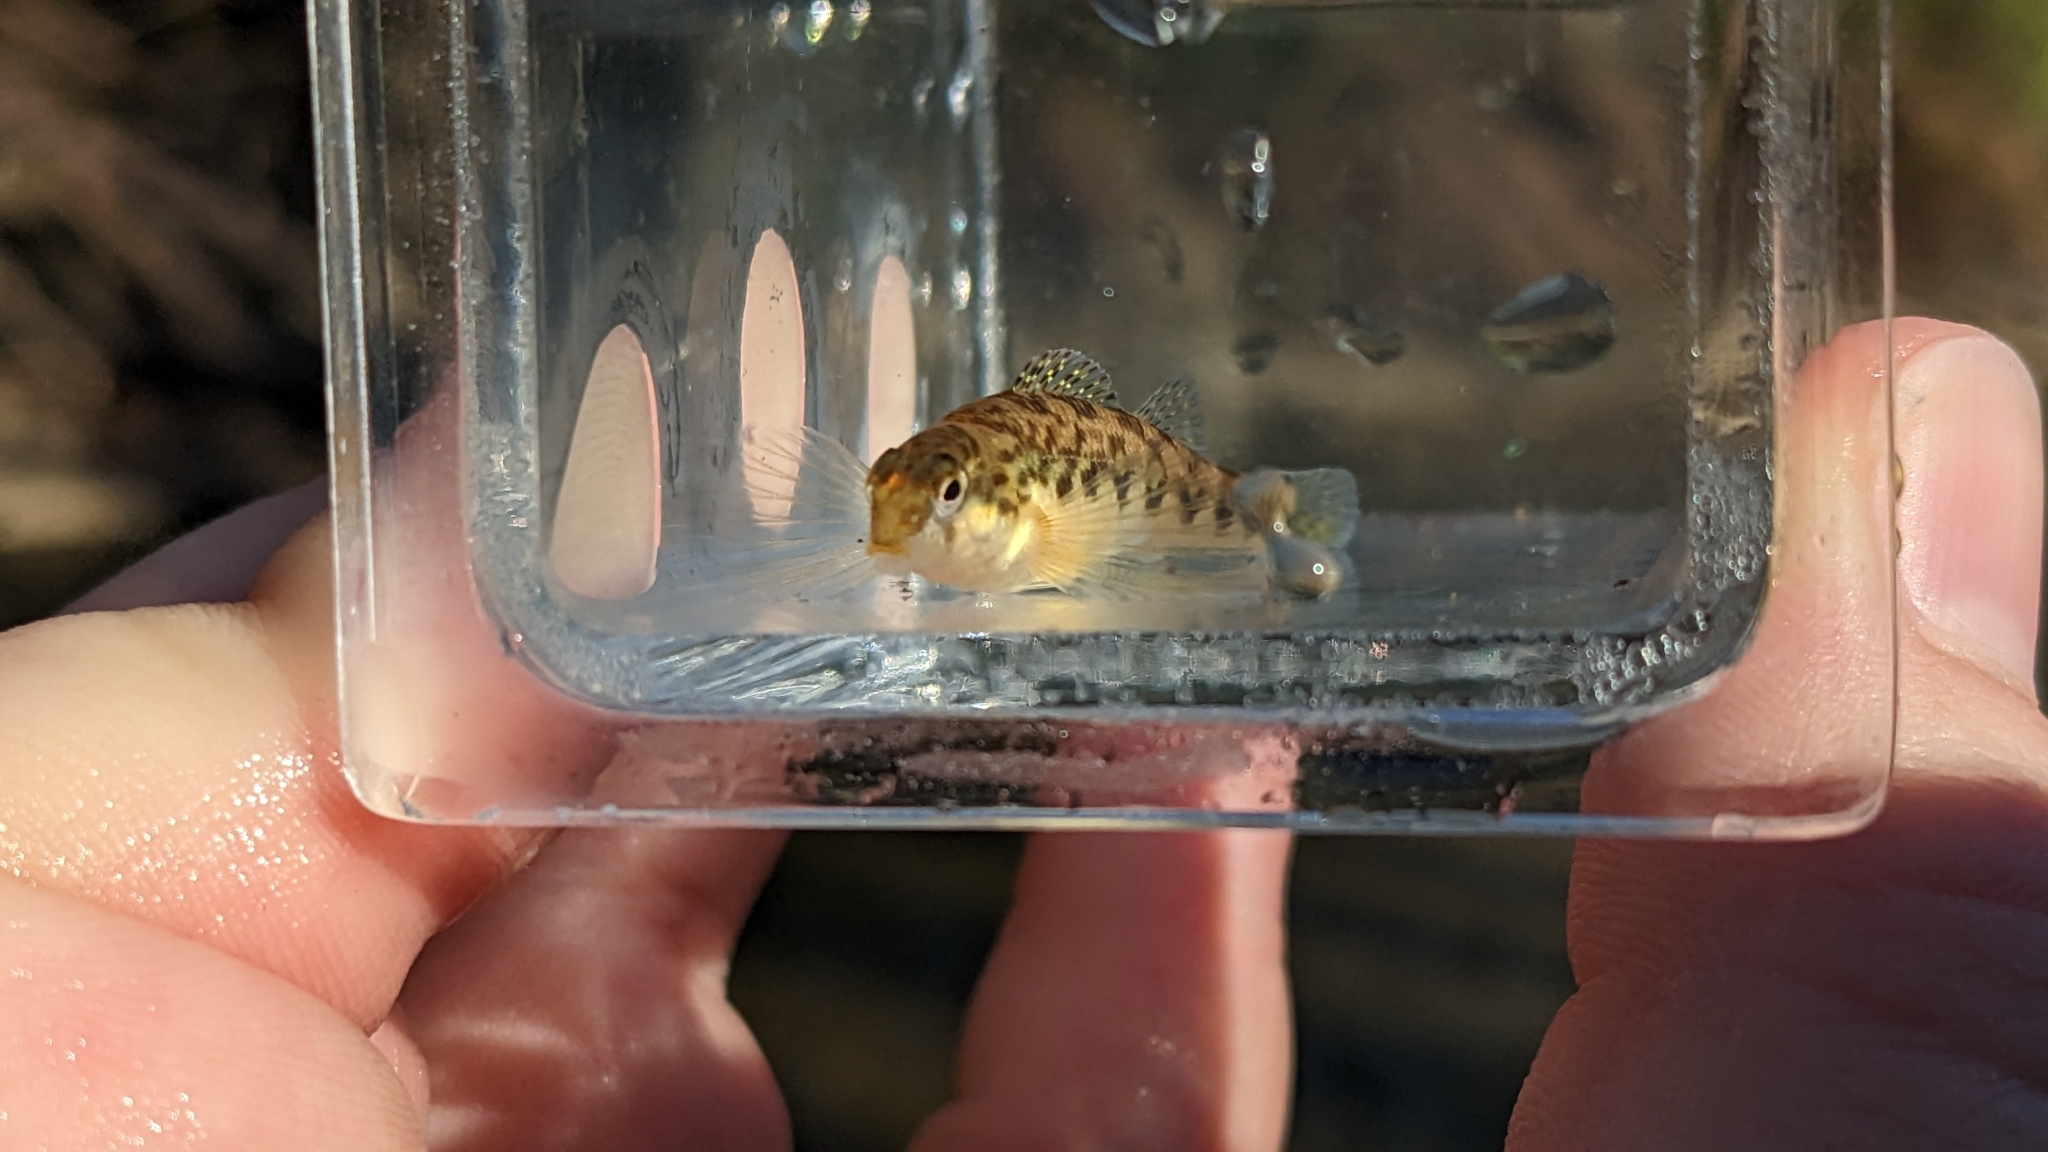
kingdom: Animalia
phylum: Chordata
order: Perciformes
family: Percidae
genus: Etheostoma
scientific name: Etheostoma flavum
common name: Saffron darter
